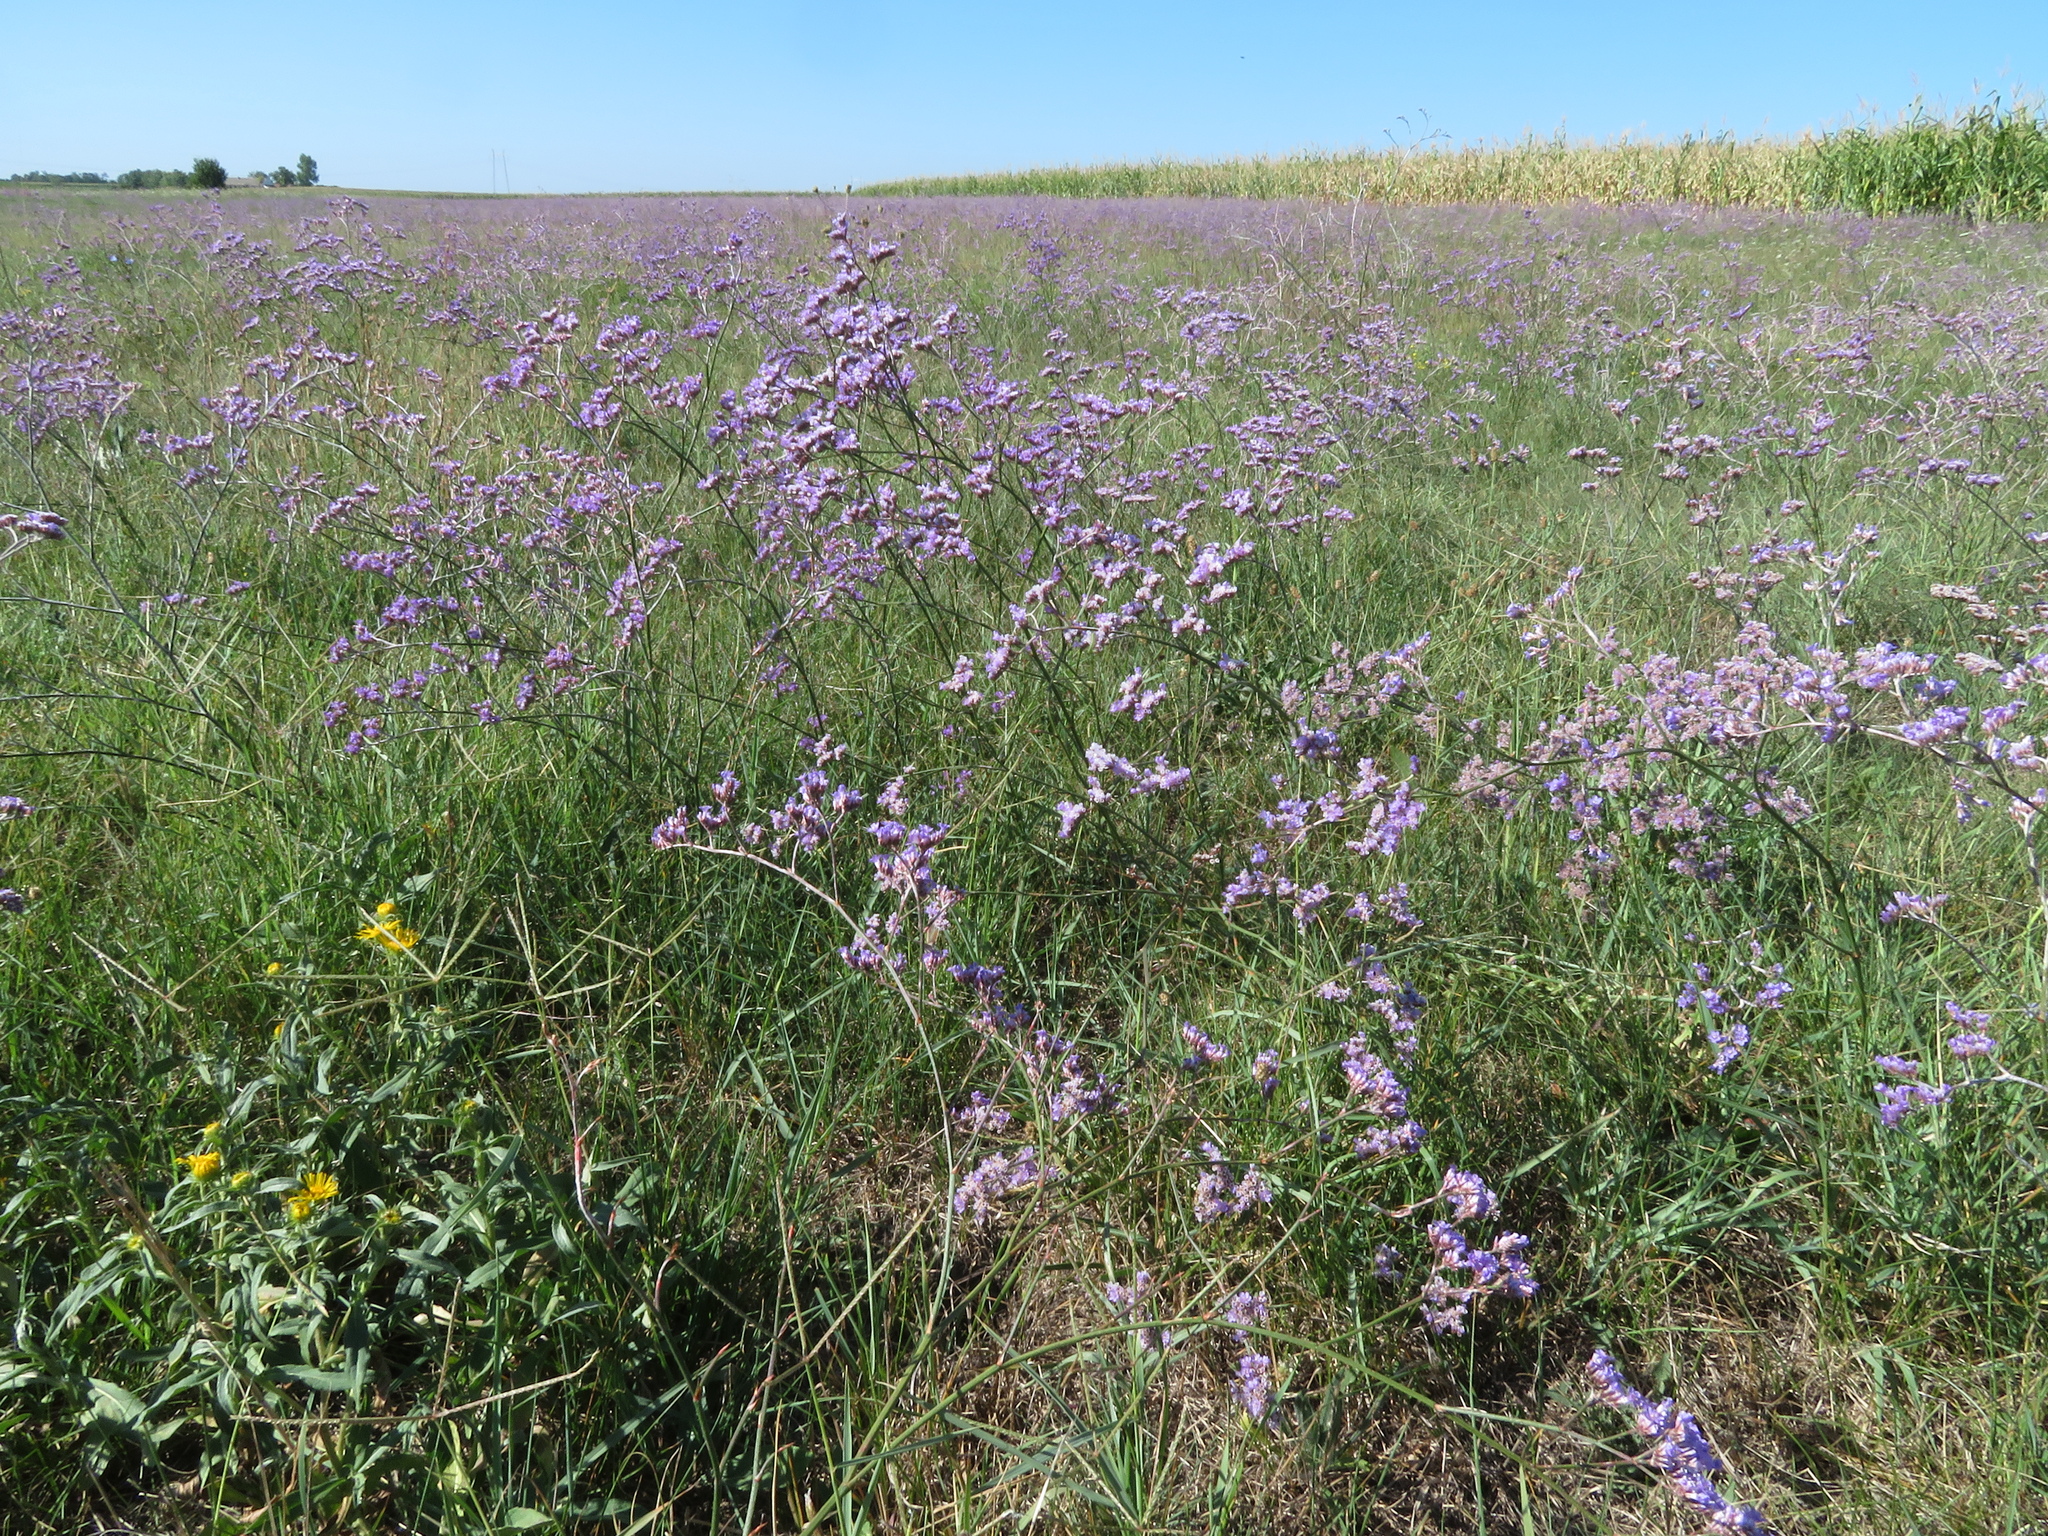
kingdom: Plantae
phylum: Tracheophyta
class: Magnoliopsida
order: Caryophyllales
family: Plumbaginaceae
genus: Limonium
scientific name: Limonium gmelini
